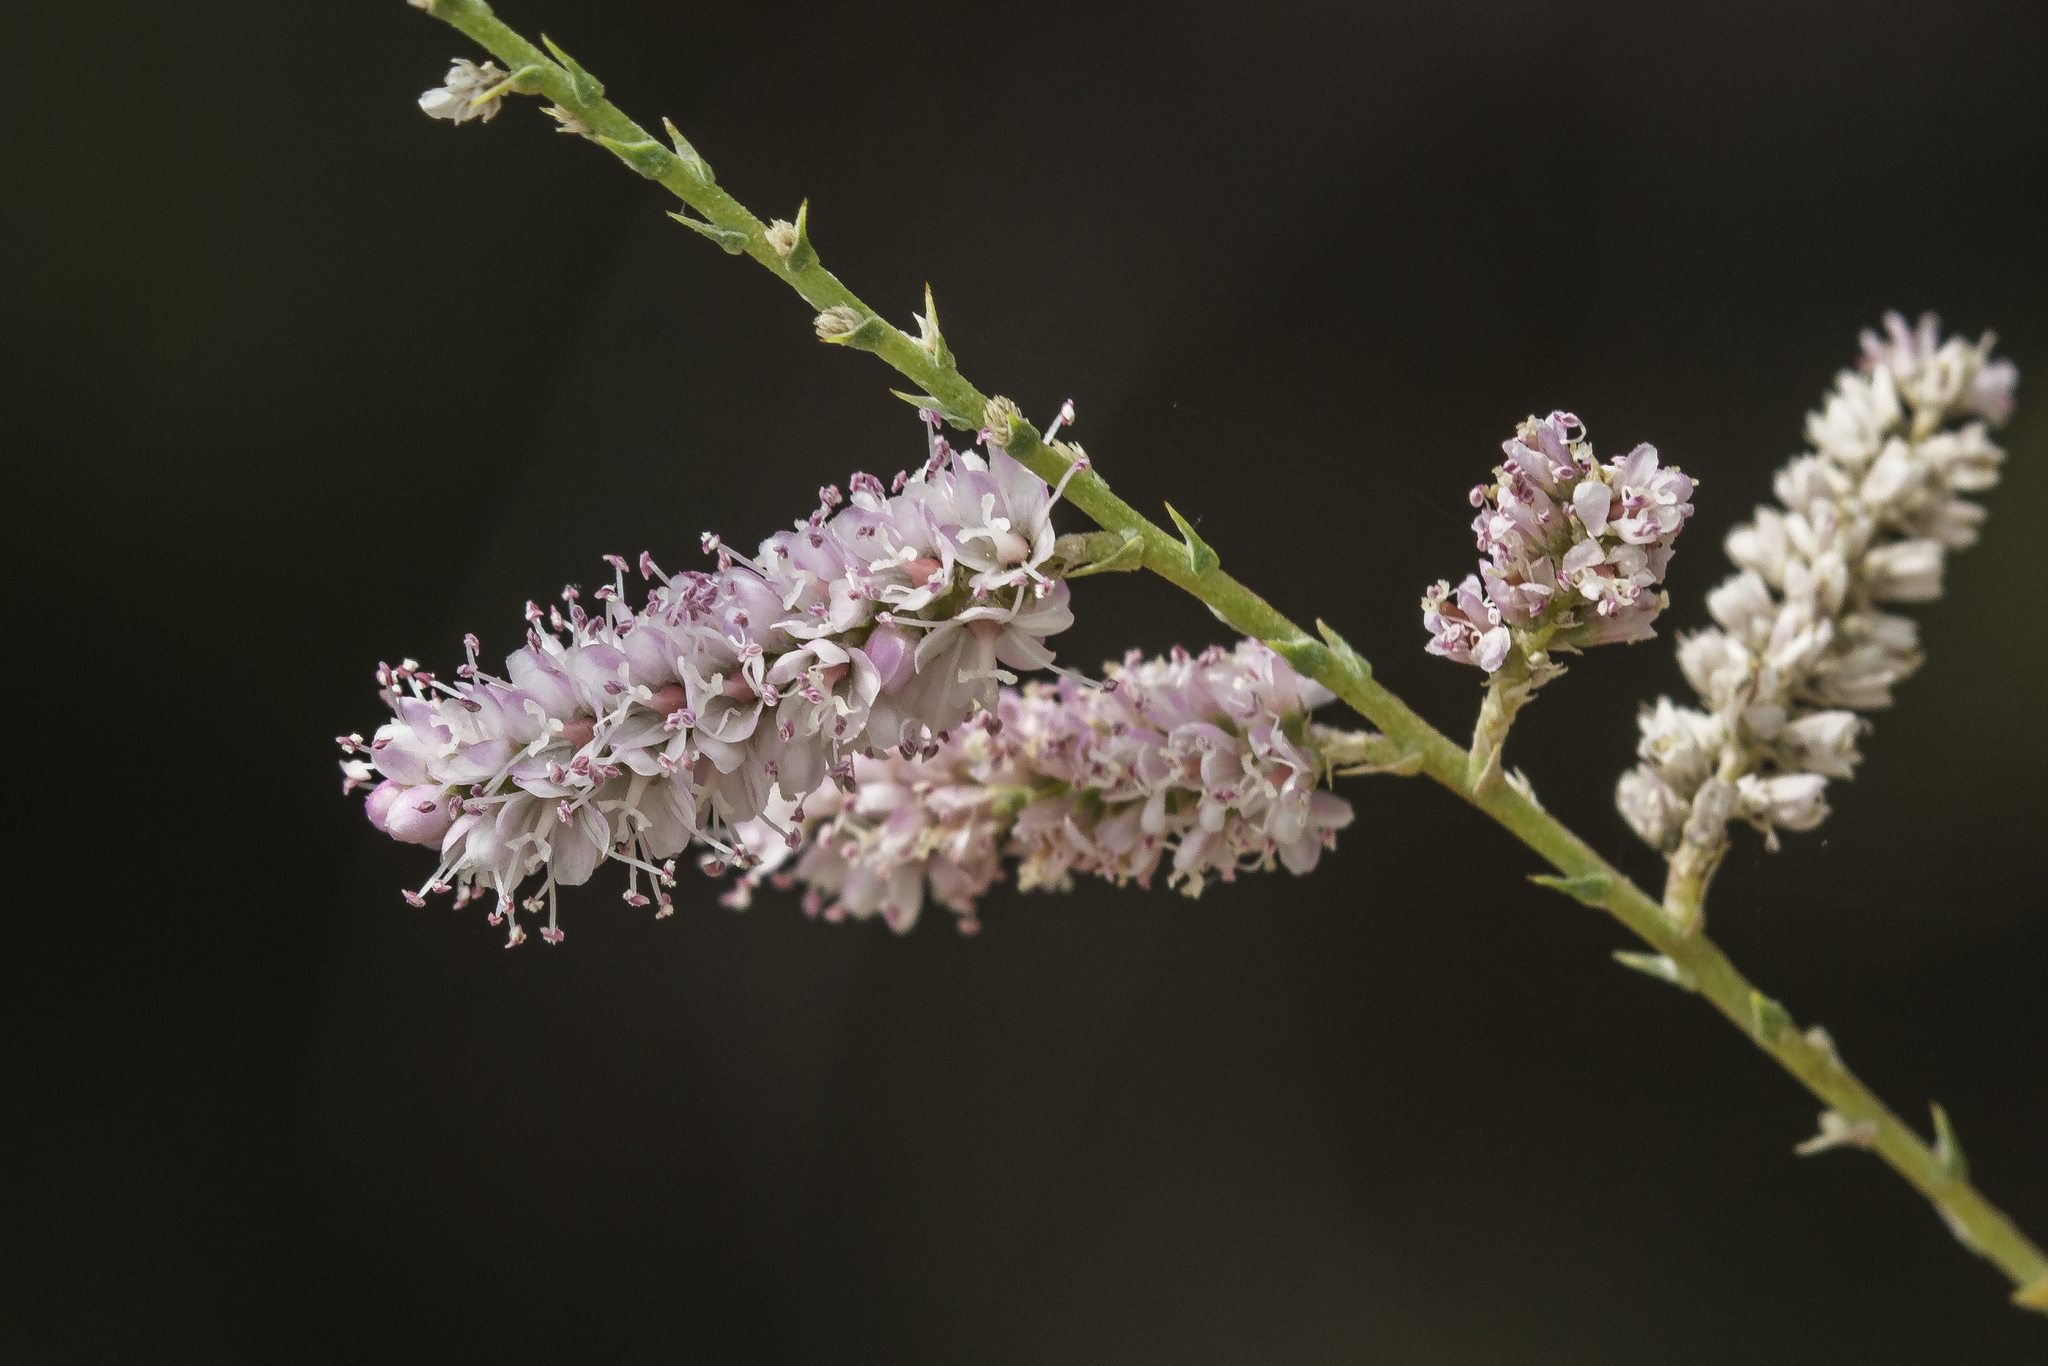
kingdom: Plantae
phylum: Tracheophyta
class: Magnoliopsida
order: Caryophyllales
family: Tamaricaceae
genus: Tamarix
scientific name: Tamarix
